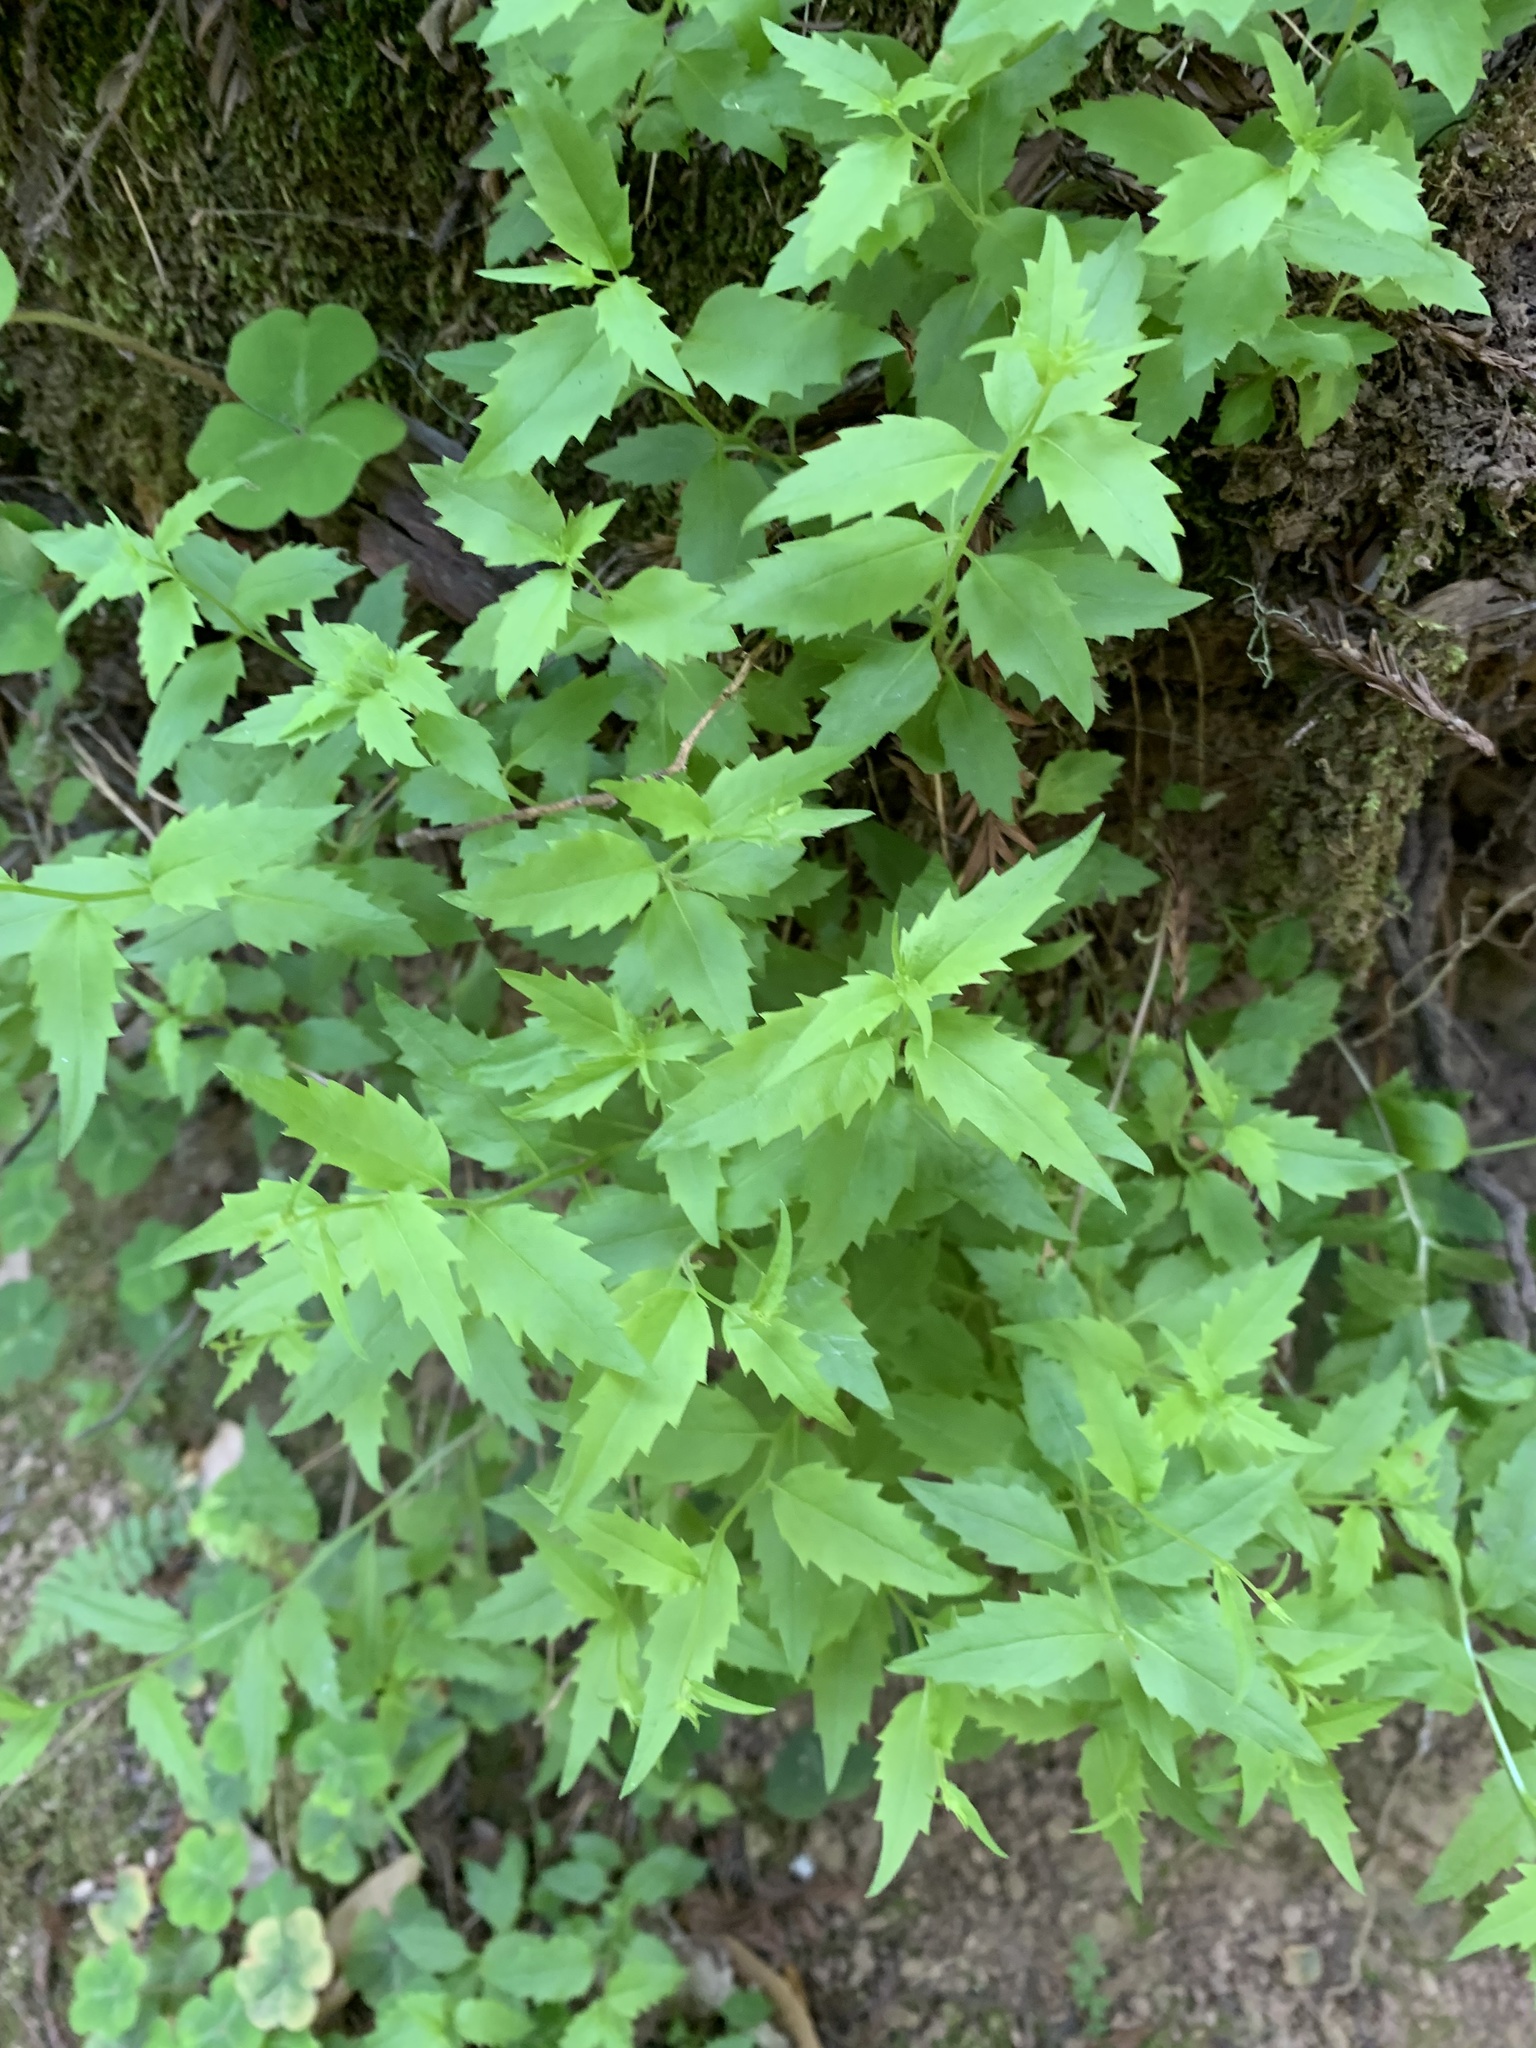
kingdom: Plantae
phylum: Tracheophyta
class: Magnoliopsida
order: Asterales
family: Campanulaceae
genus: Smithiastrum
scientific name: Smithiastrum prenanthoides
